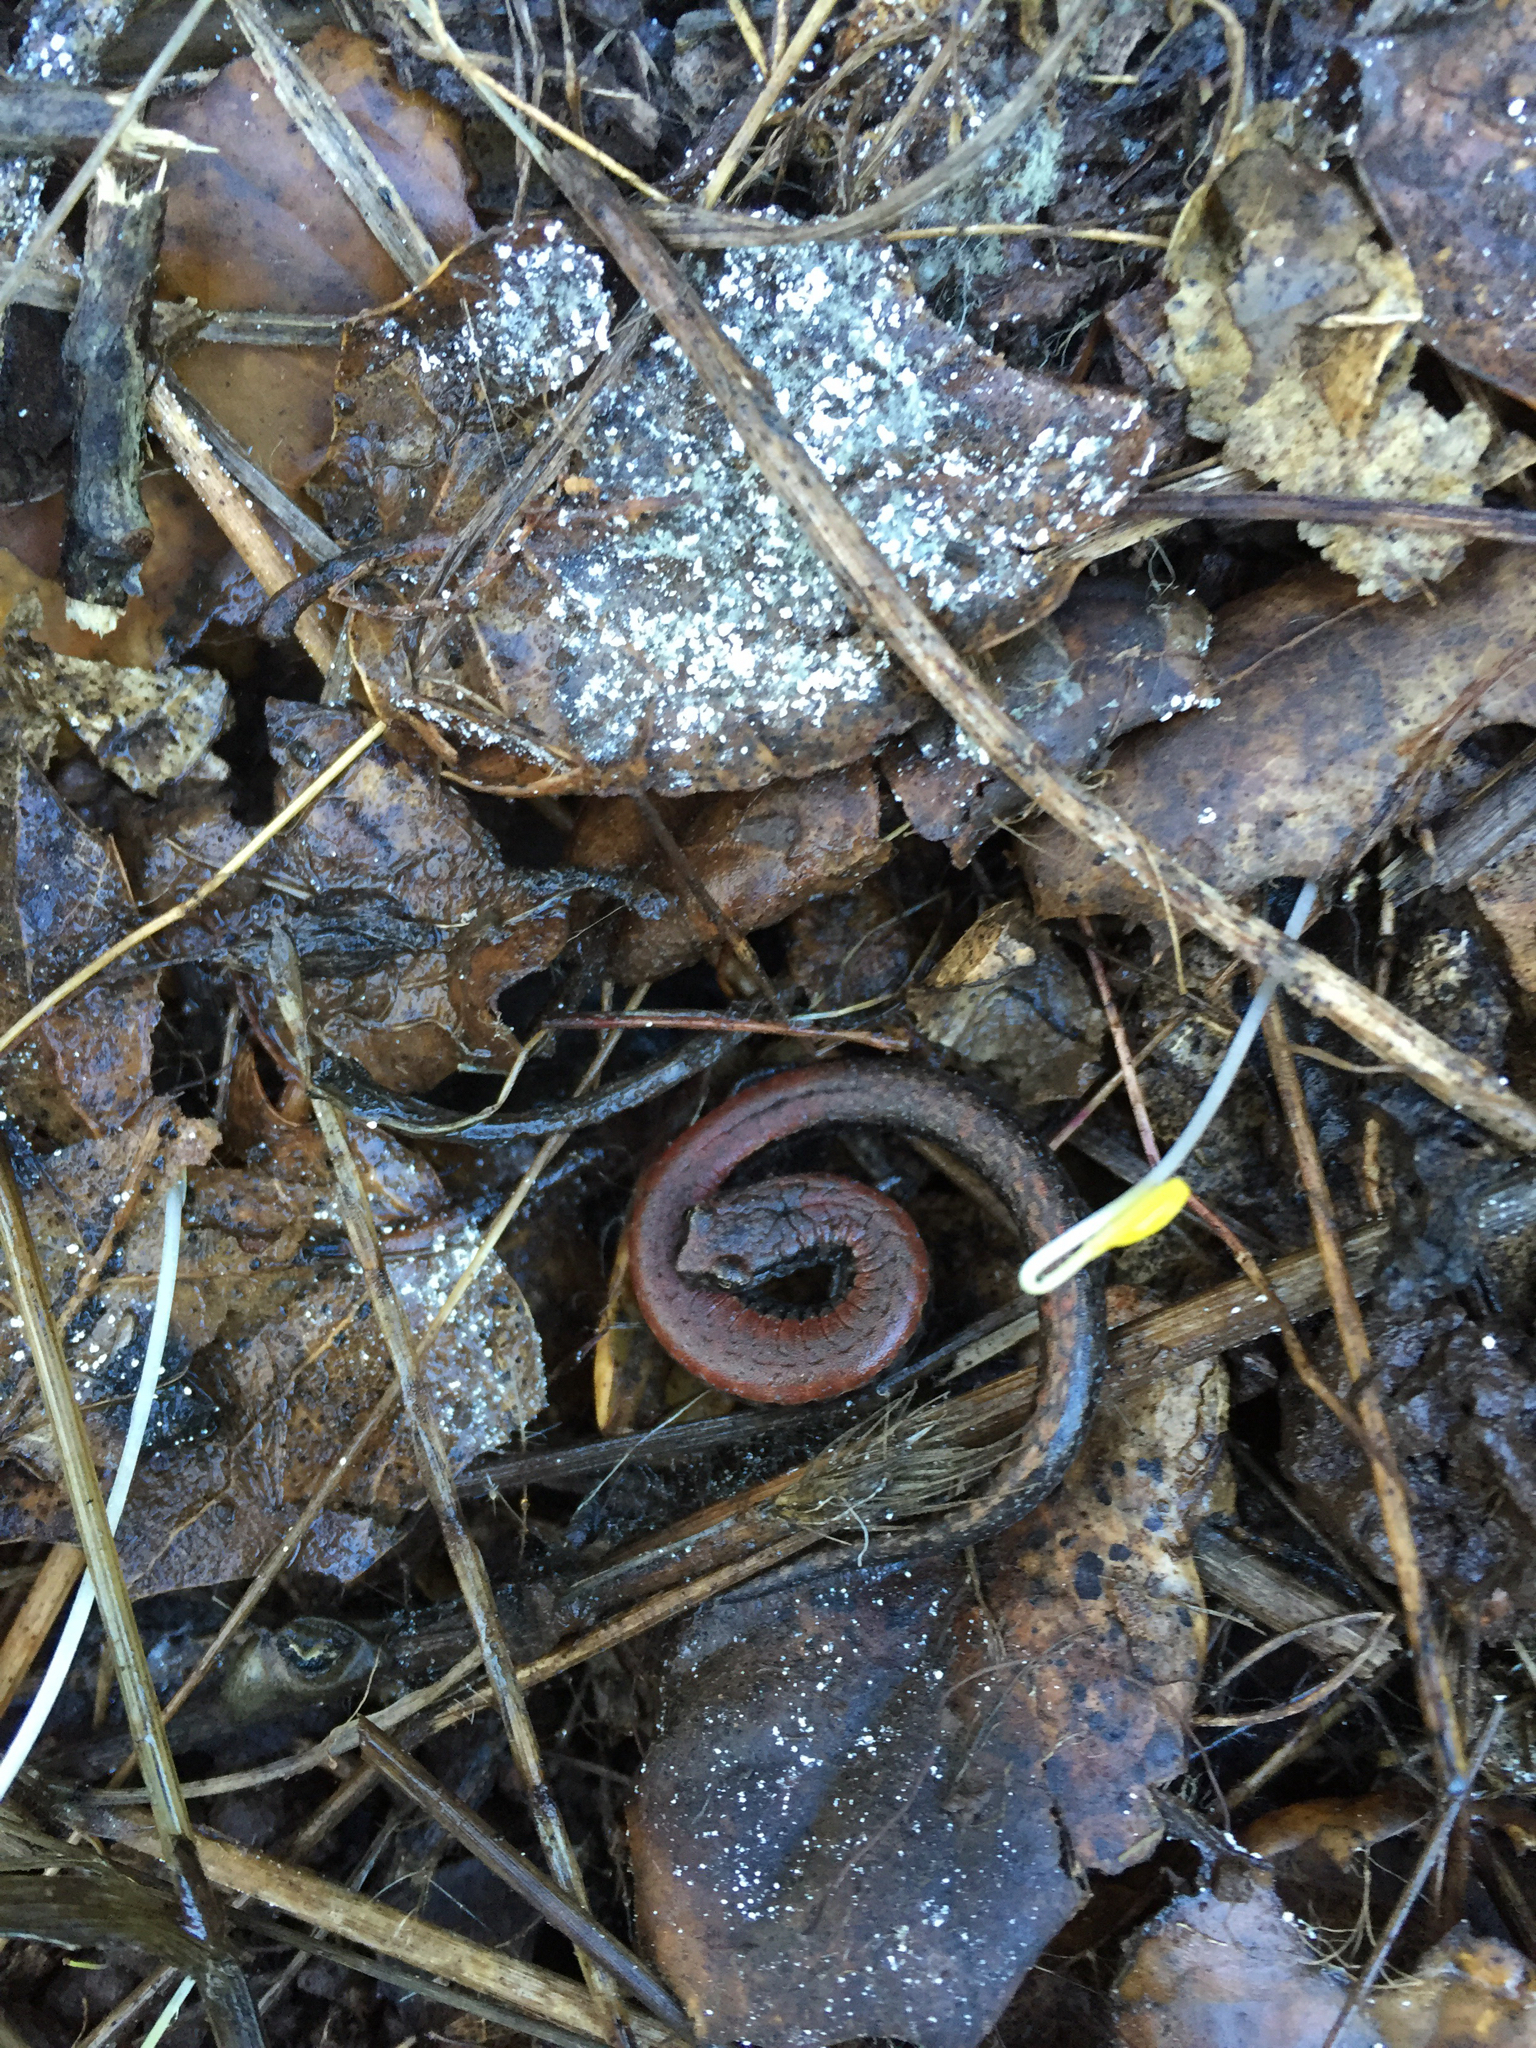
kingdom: Animalia
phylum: Chordata
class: Amphibia
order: Caudata
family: Plethodontidae
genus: Batrachoseps
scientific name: Batrachoseps attenuatus
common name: California slender salamander
